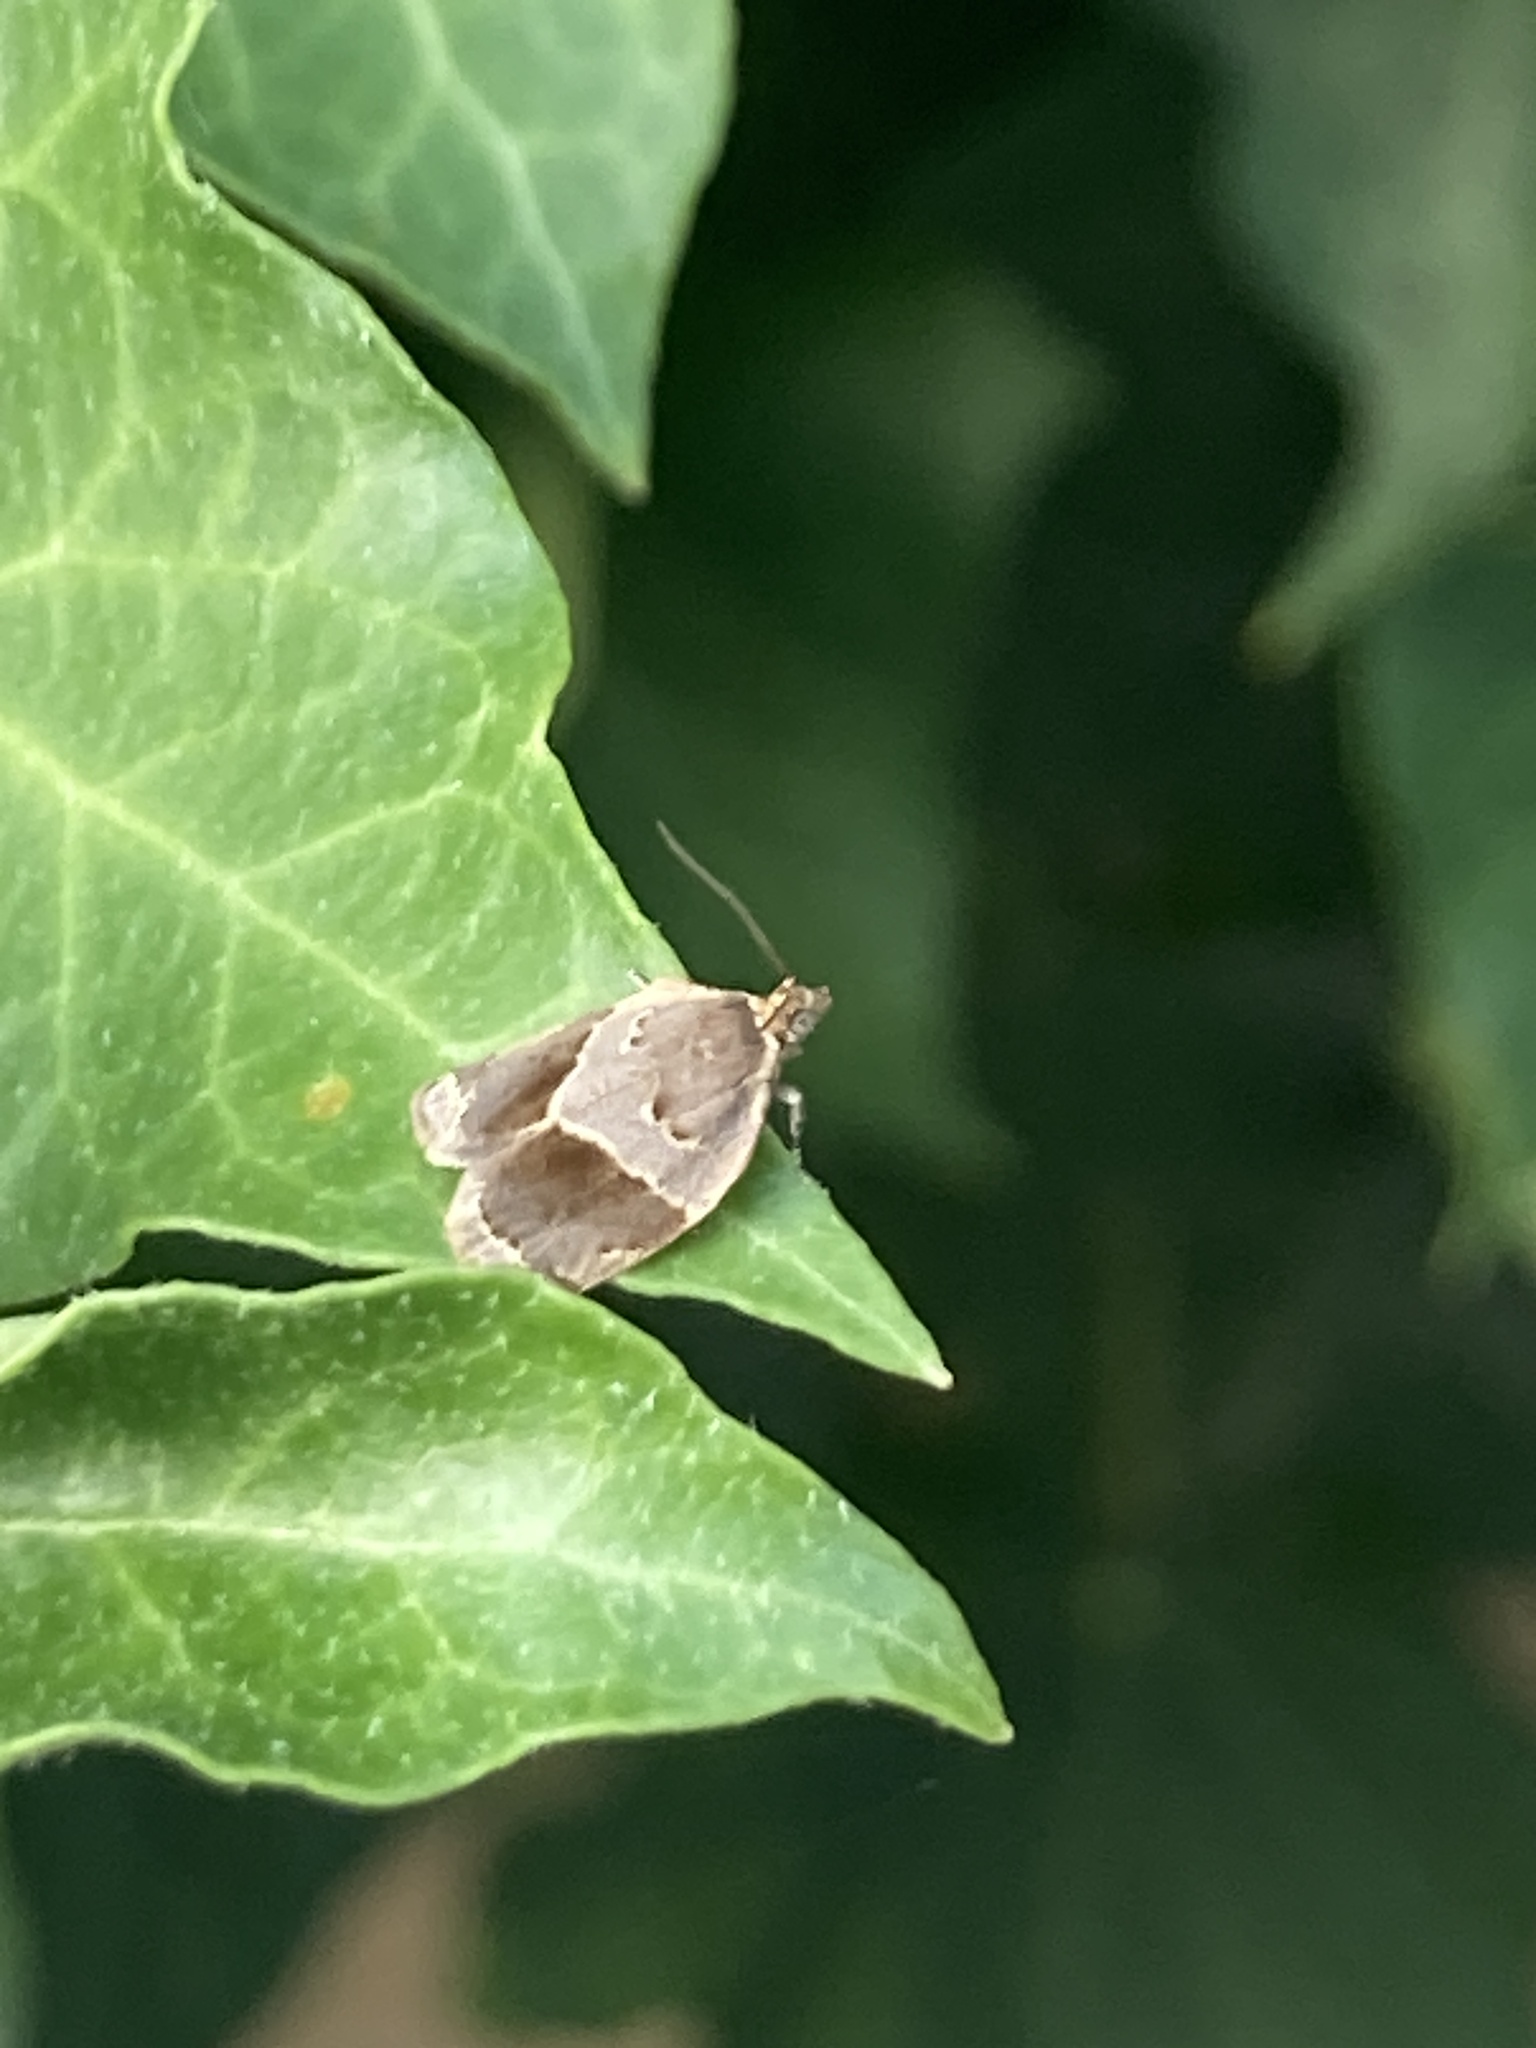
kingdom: Animalia
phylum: Arthropoda
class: Insecta
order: Lepidoptera
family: Tortricidae
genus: Clepsis
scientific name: Clepsis dumicolana
